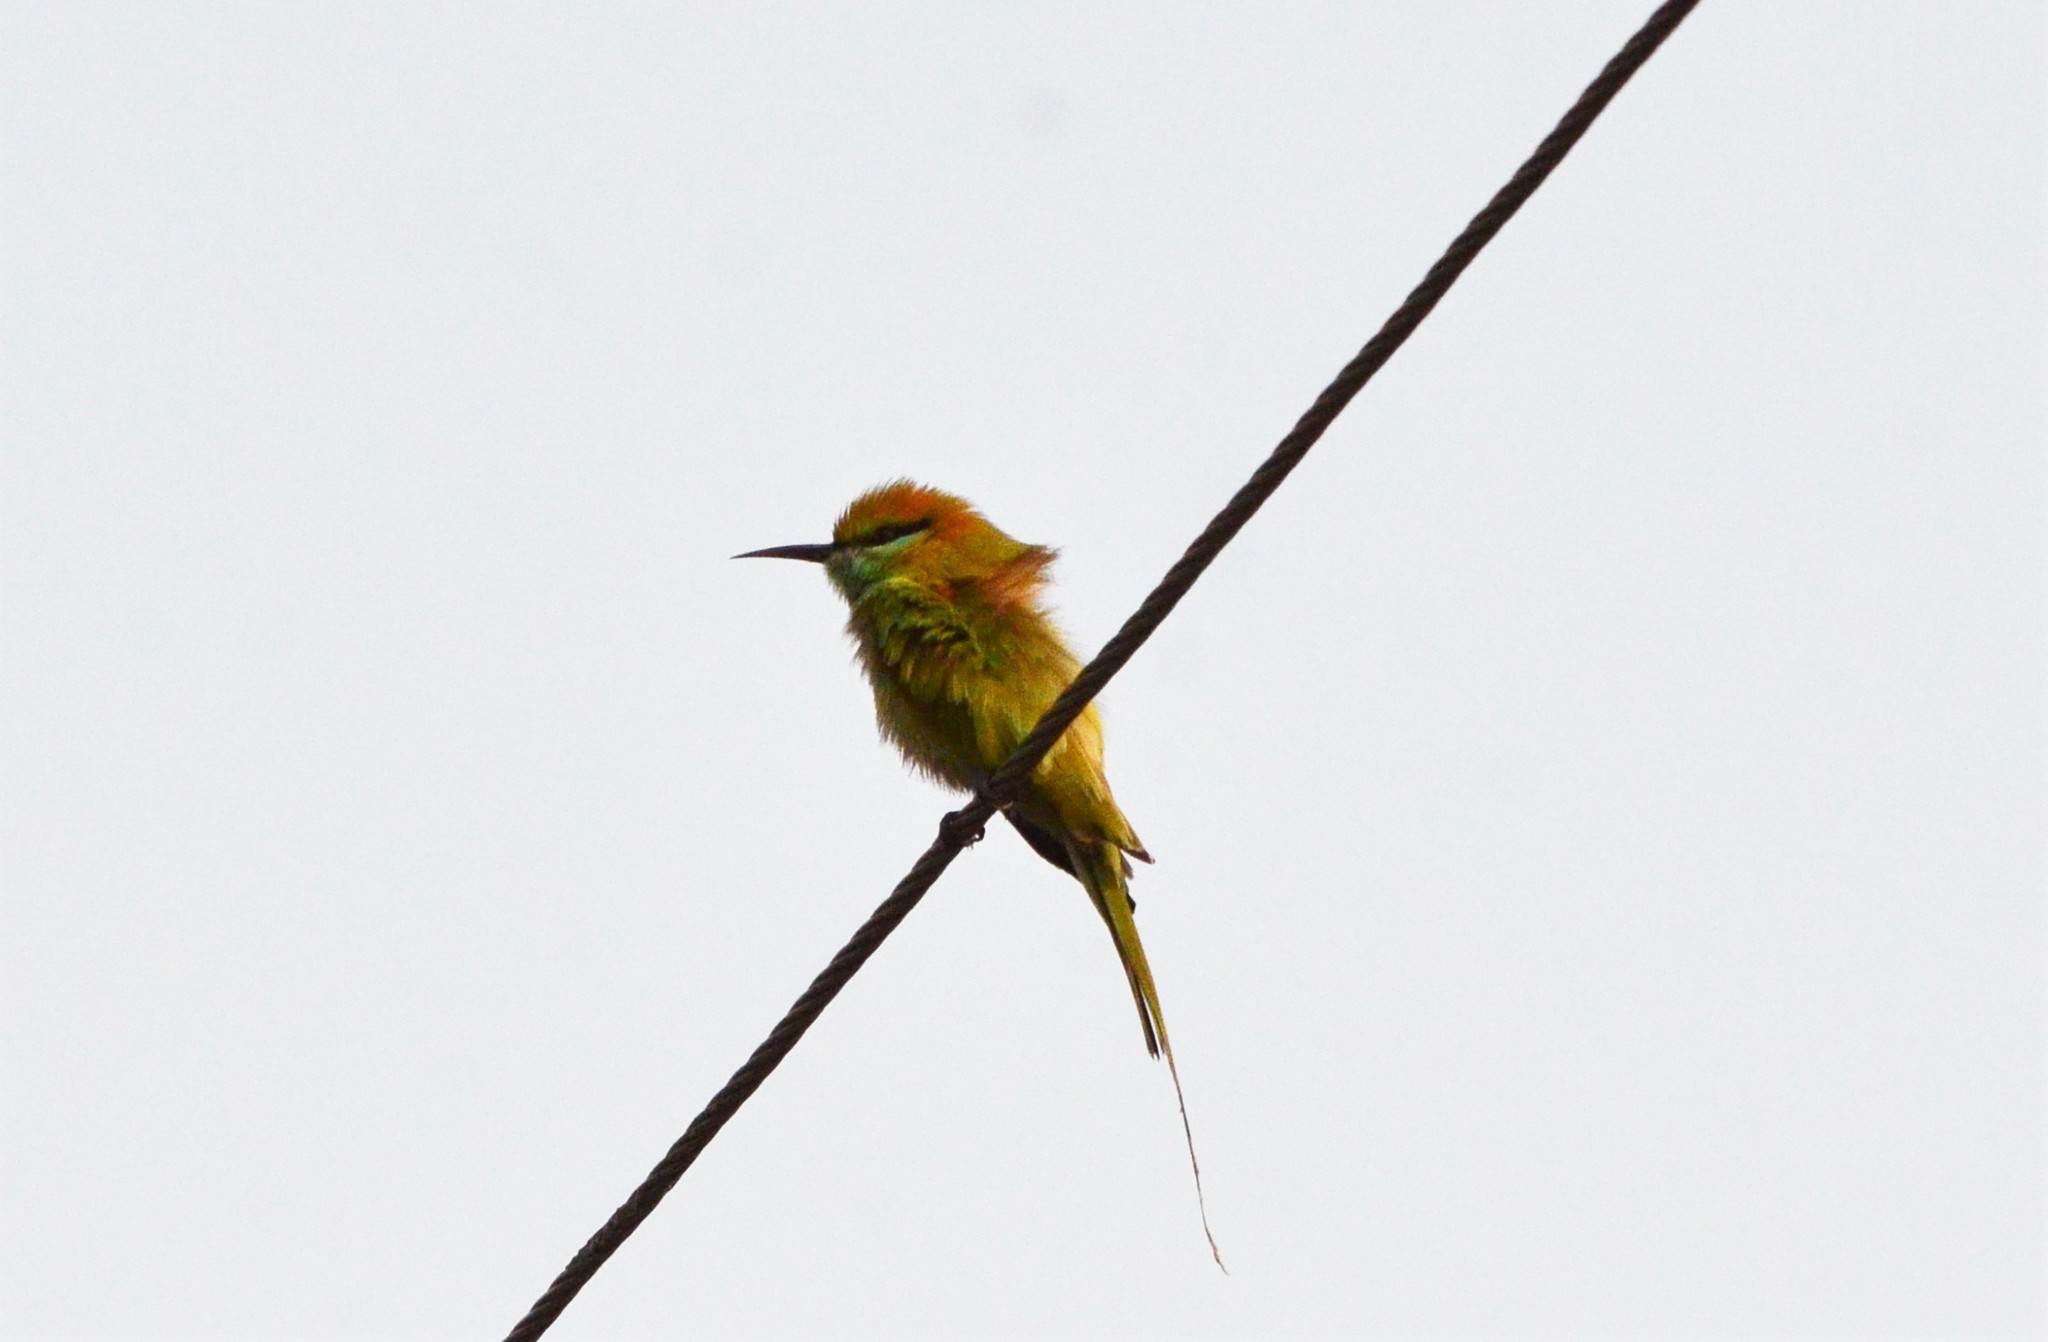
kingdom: Animalia
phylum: Chordata
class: Aves
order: Coraciiformes
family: Meropidae
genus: Merops
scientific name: Merops orientalis
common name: Green bee-eater
